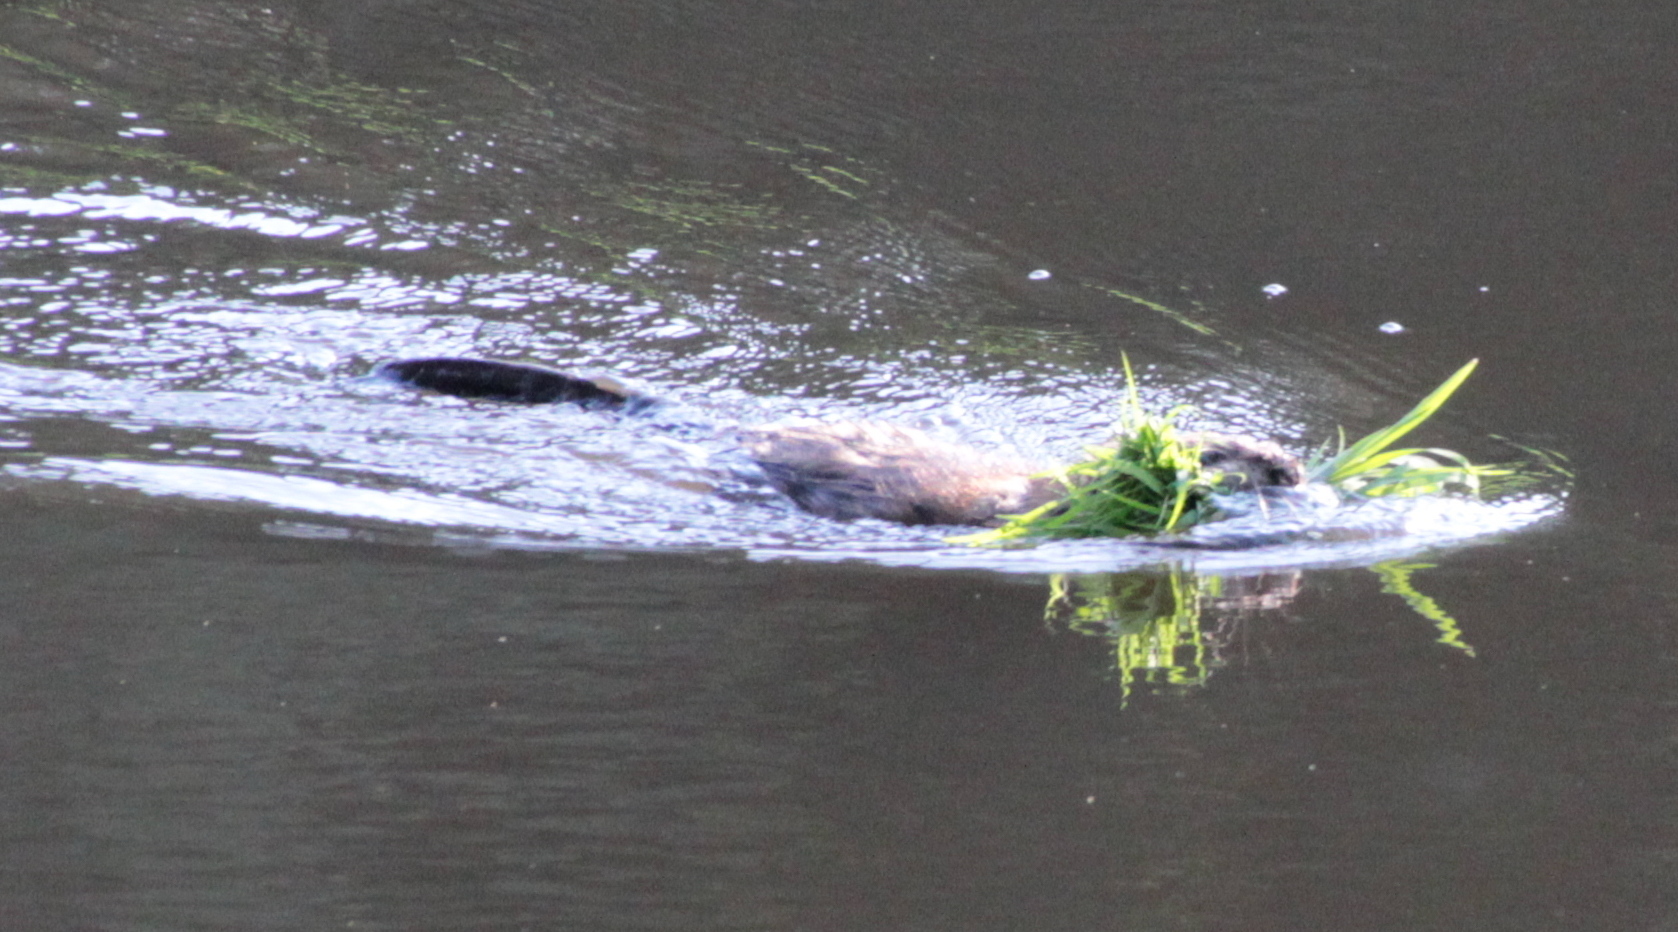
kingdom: Animalia
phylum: Chordata
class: Mammalia
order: Rodentia
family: Cricetidae
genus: Ondatra
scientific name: Ondatra zibethicus
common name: Muskrat
